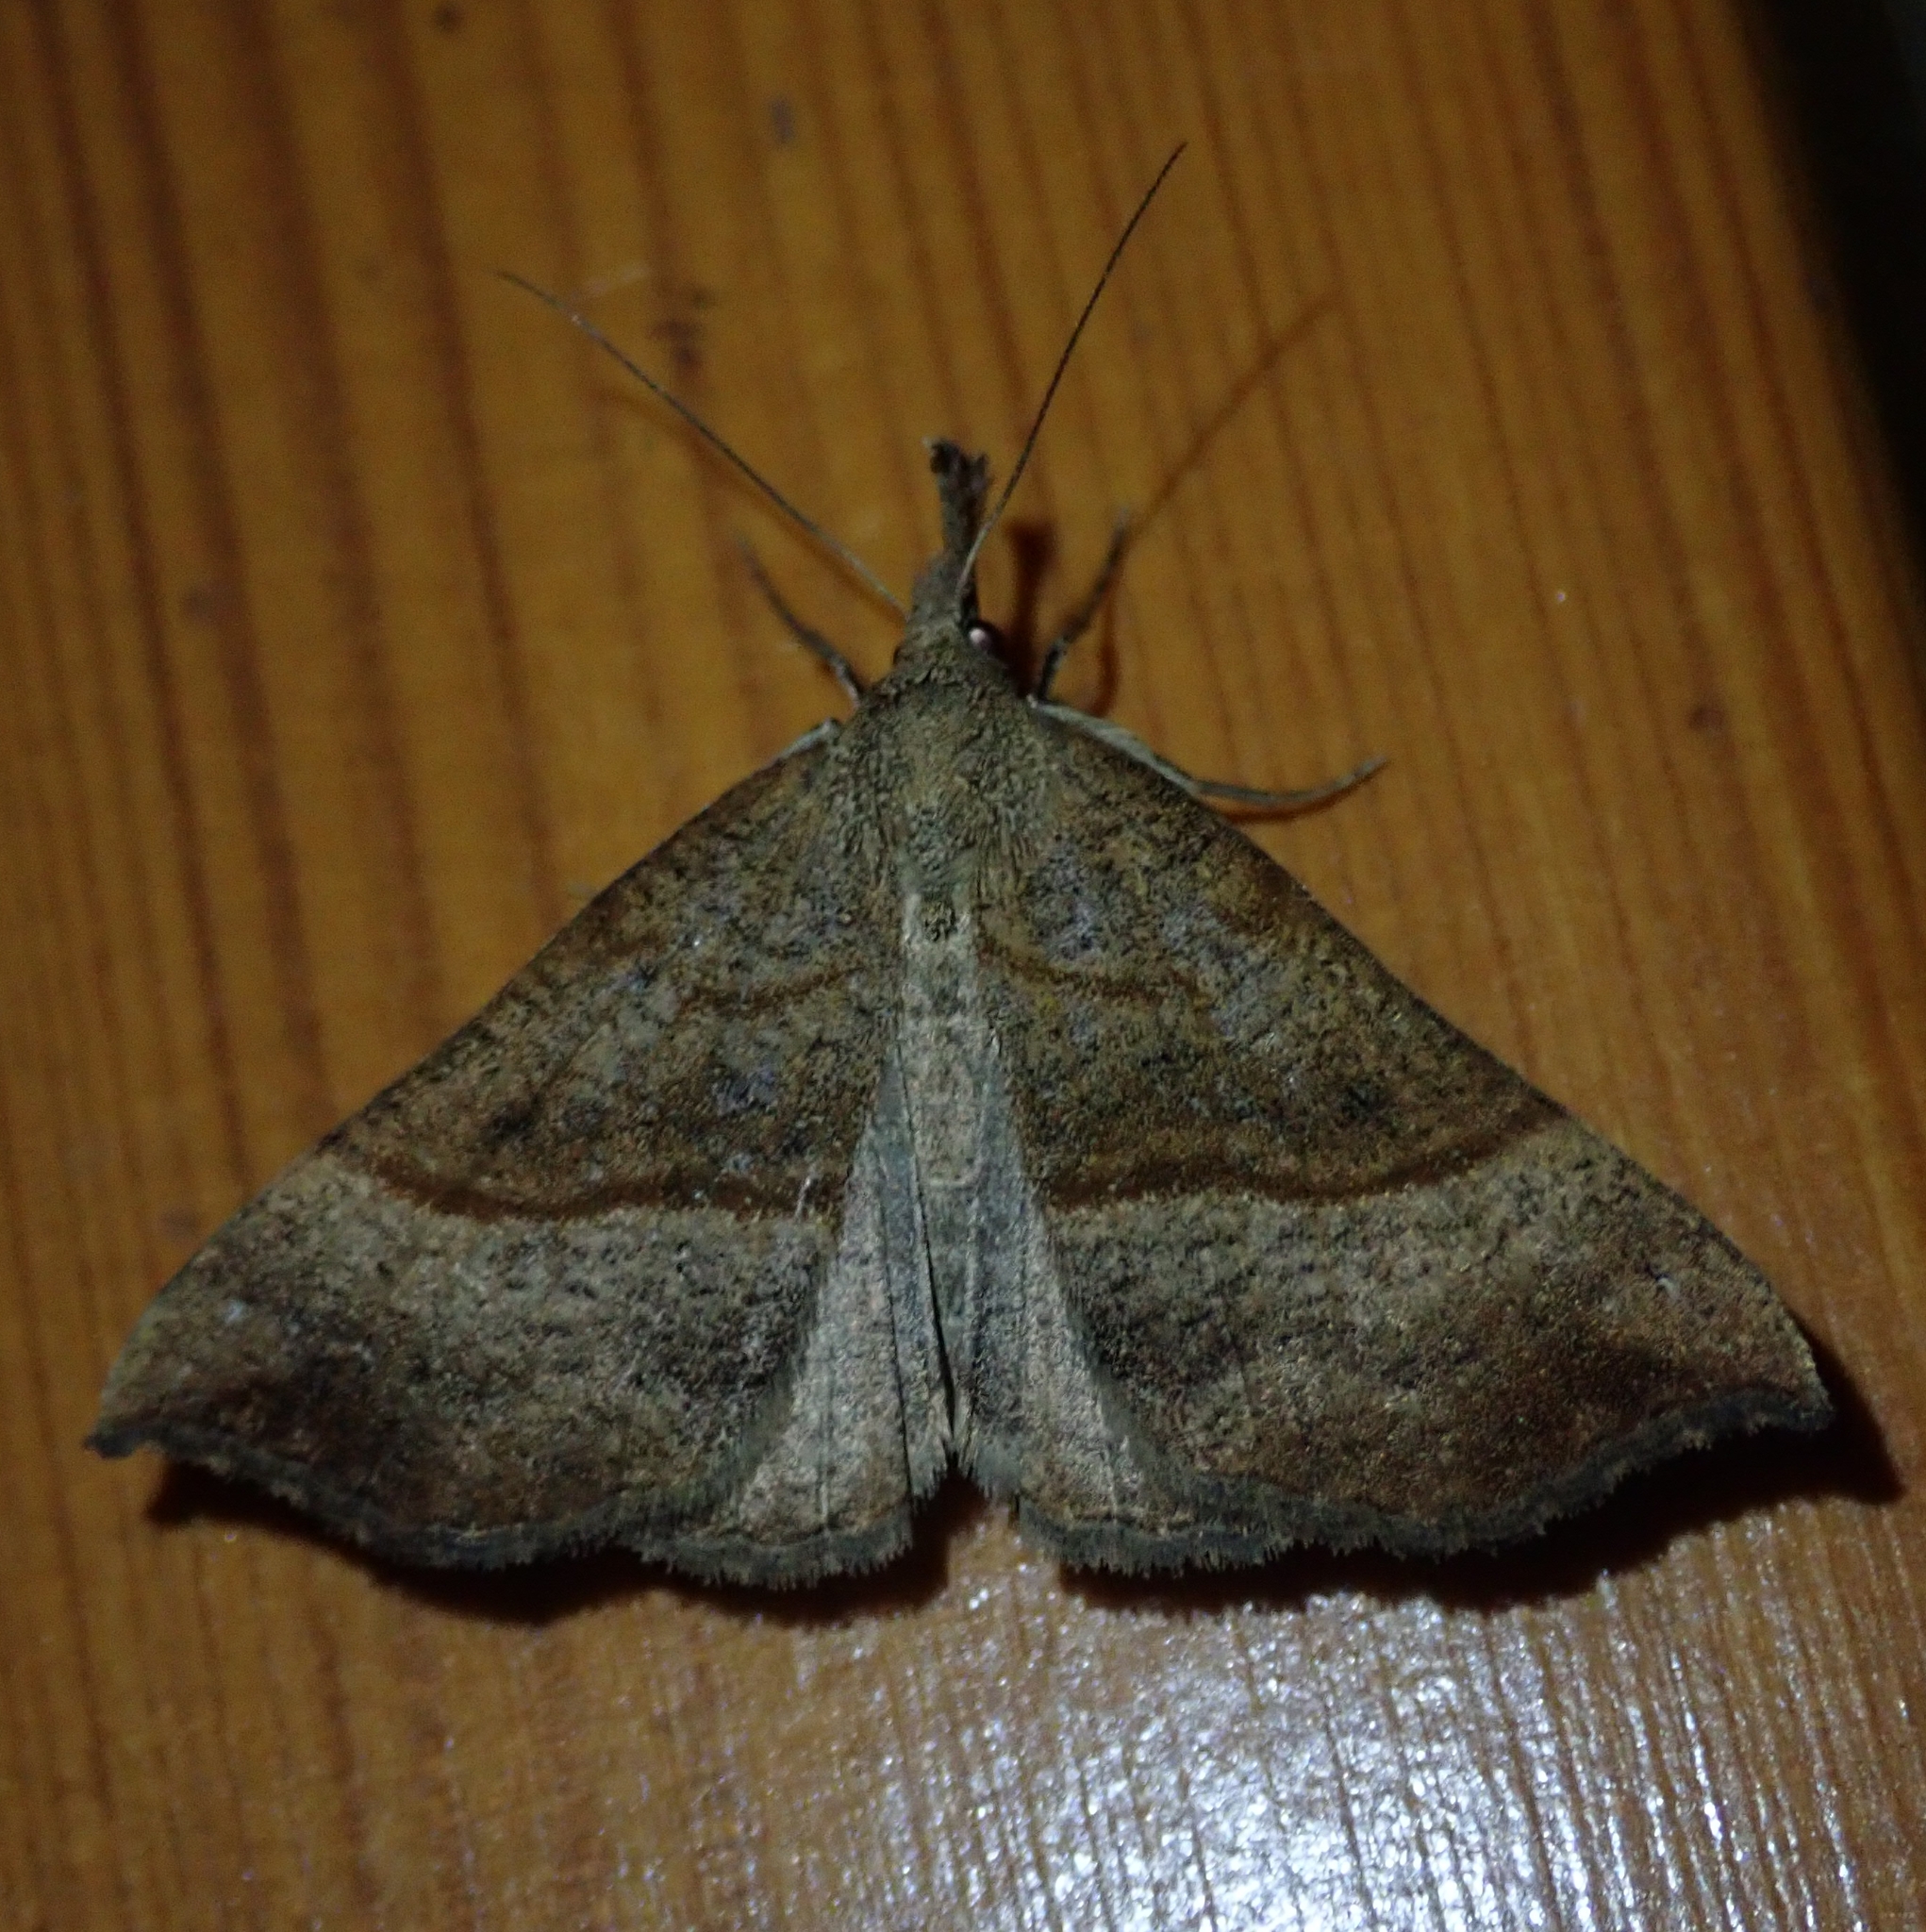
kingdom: Animalia
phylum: Arthropoda
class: Insecta
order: Lepidoptera
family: Erebidae
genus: Hypena
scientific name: Hypena proboscidalis
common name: Snout
